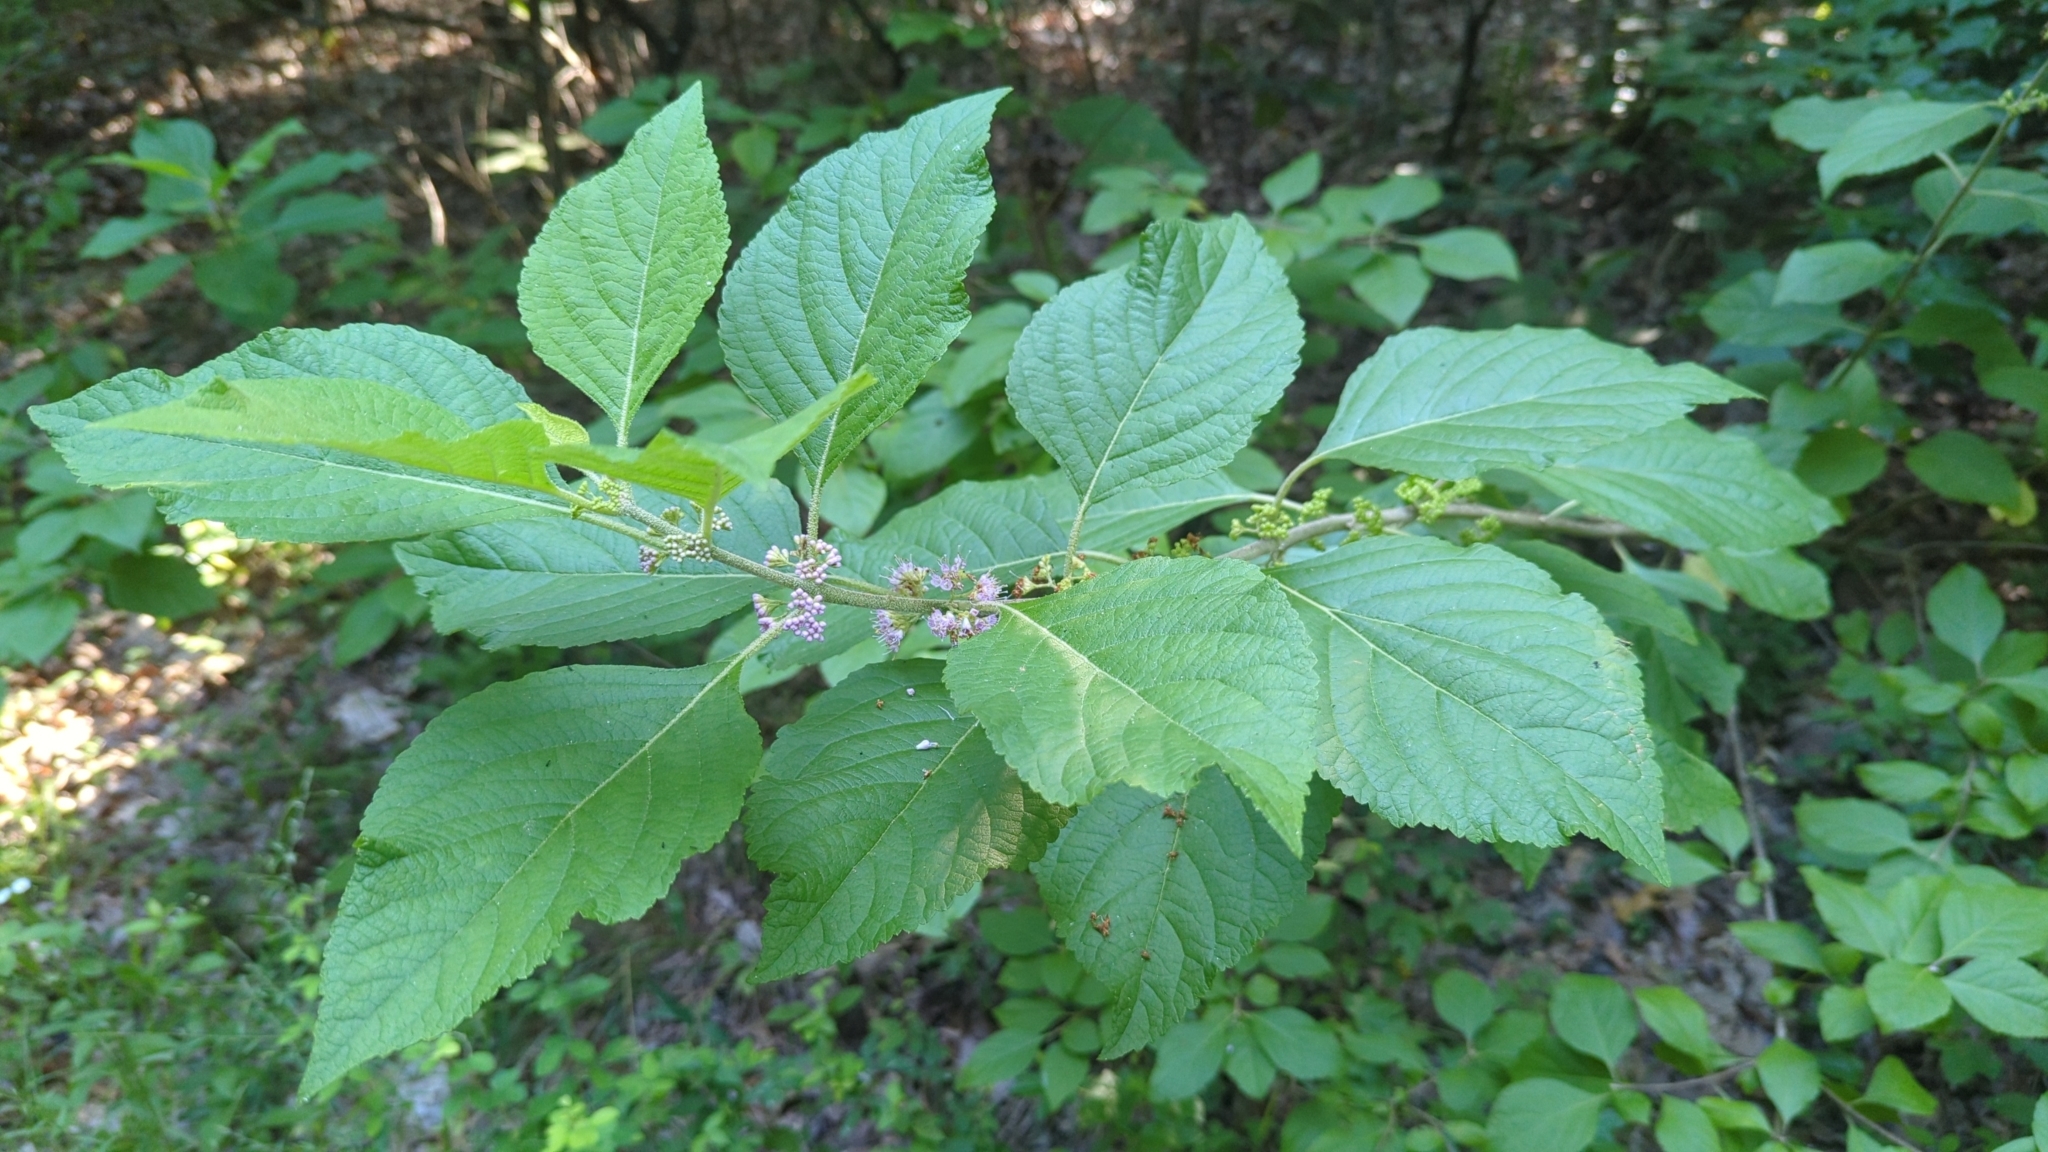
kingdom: Plantae
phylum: Tracheophyta
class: Magnoliopsida
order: Lamiales
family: Lamiaceae
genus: Callicarpa
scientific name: Callicarpa americana
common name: American beautyberry
